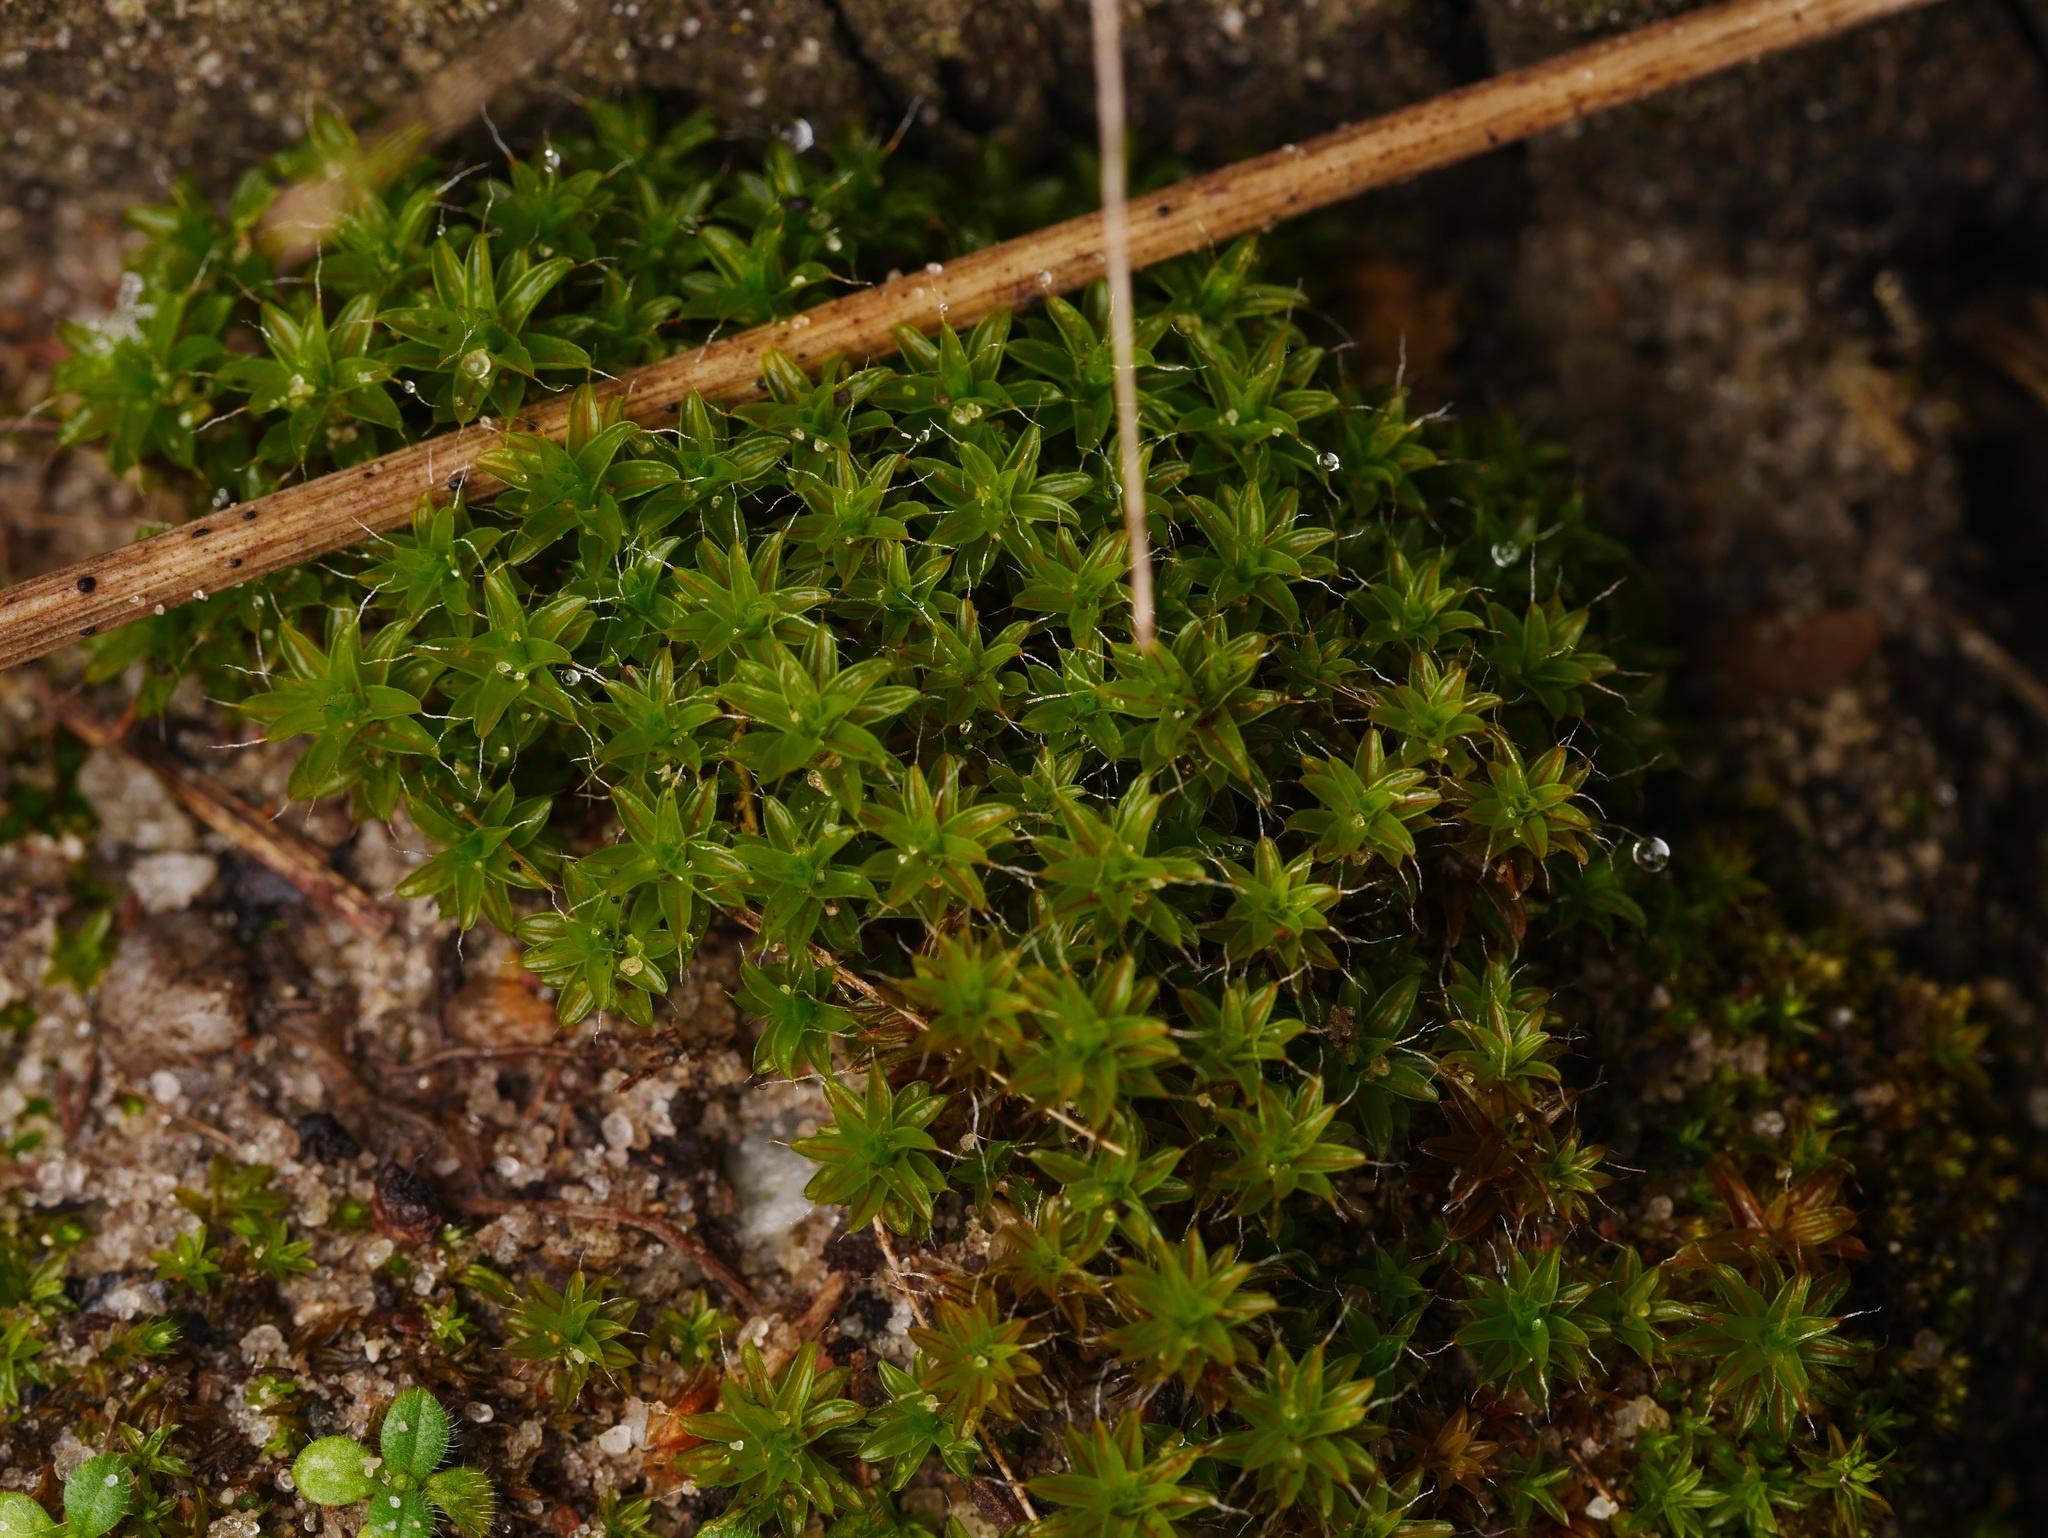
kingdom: Plantae
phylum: Bryophyta
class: Bryopsida
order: Pottiales
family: Pottiaceae
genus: Syntrichia
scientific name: Syntrichia ruralis
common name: Sidewalk screw moss
